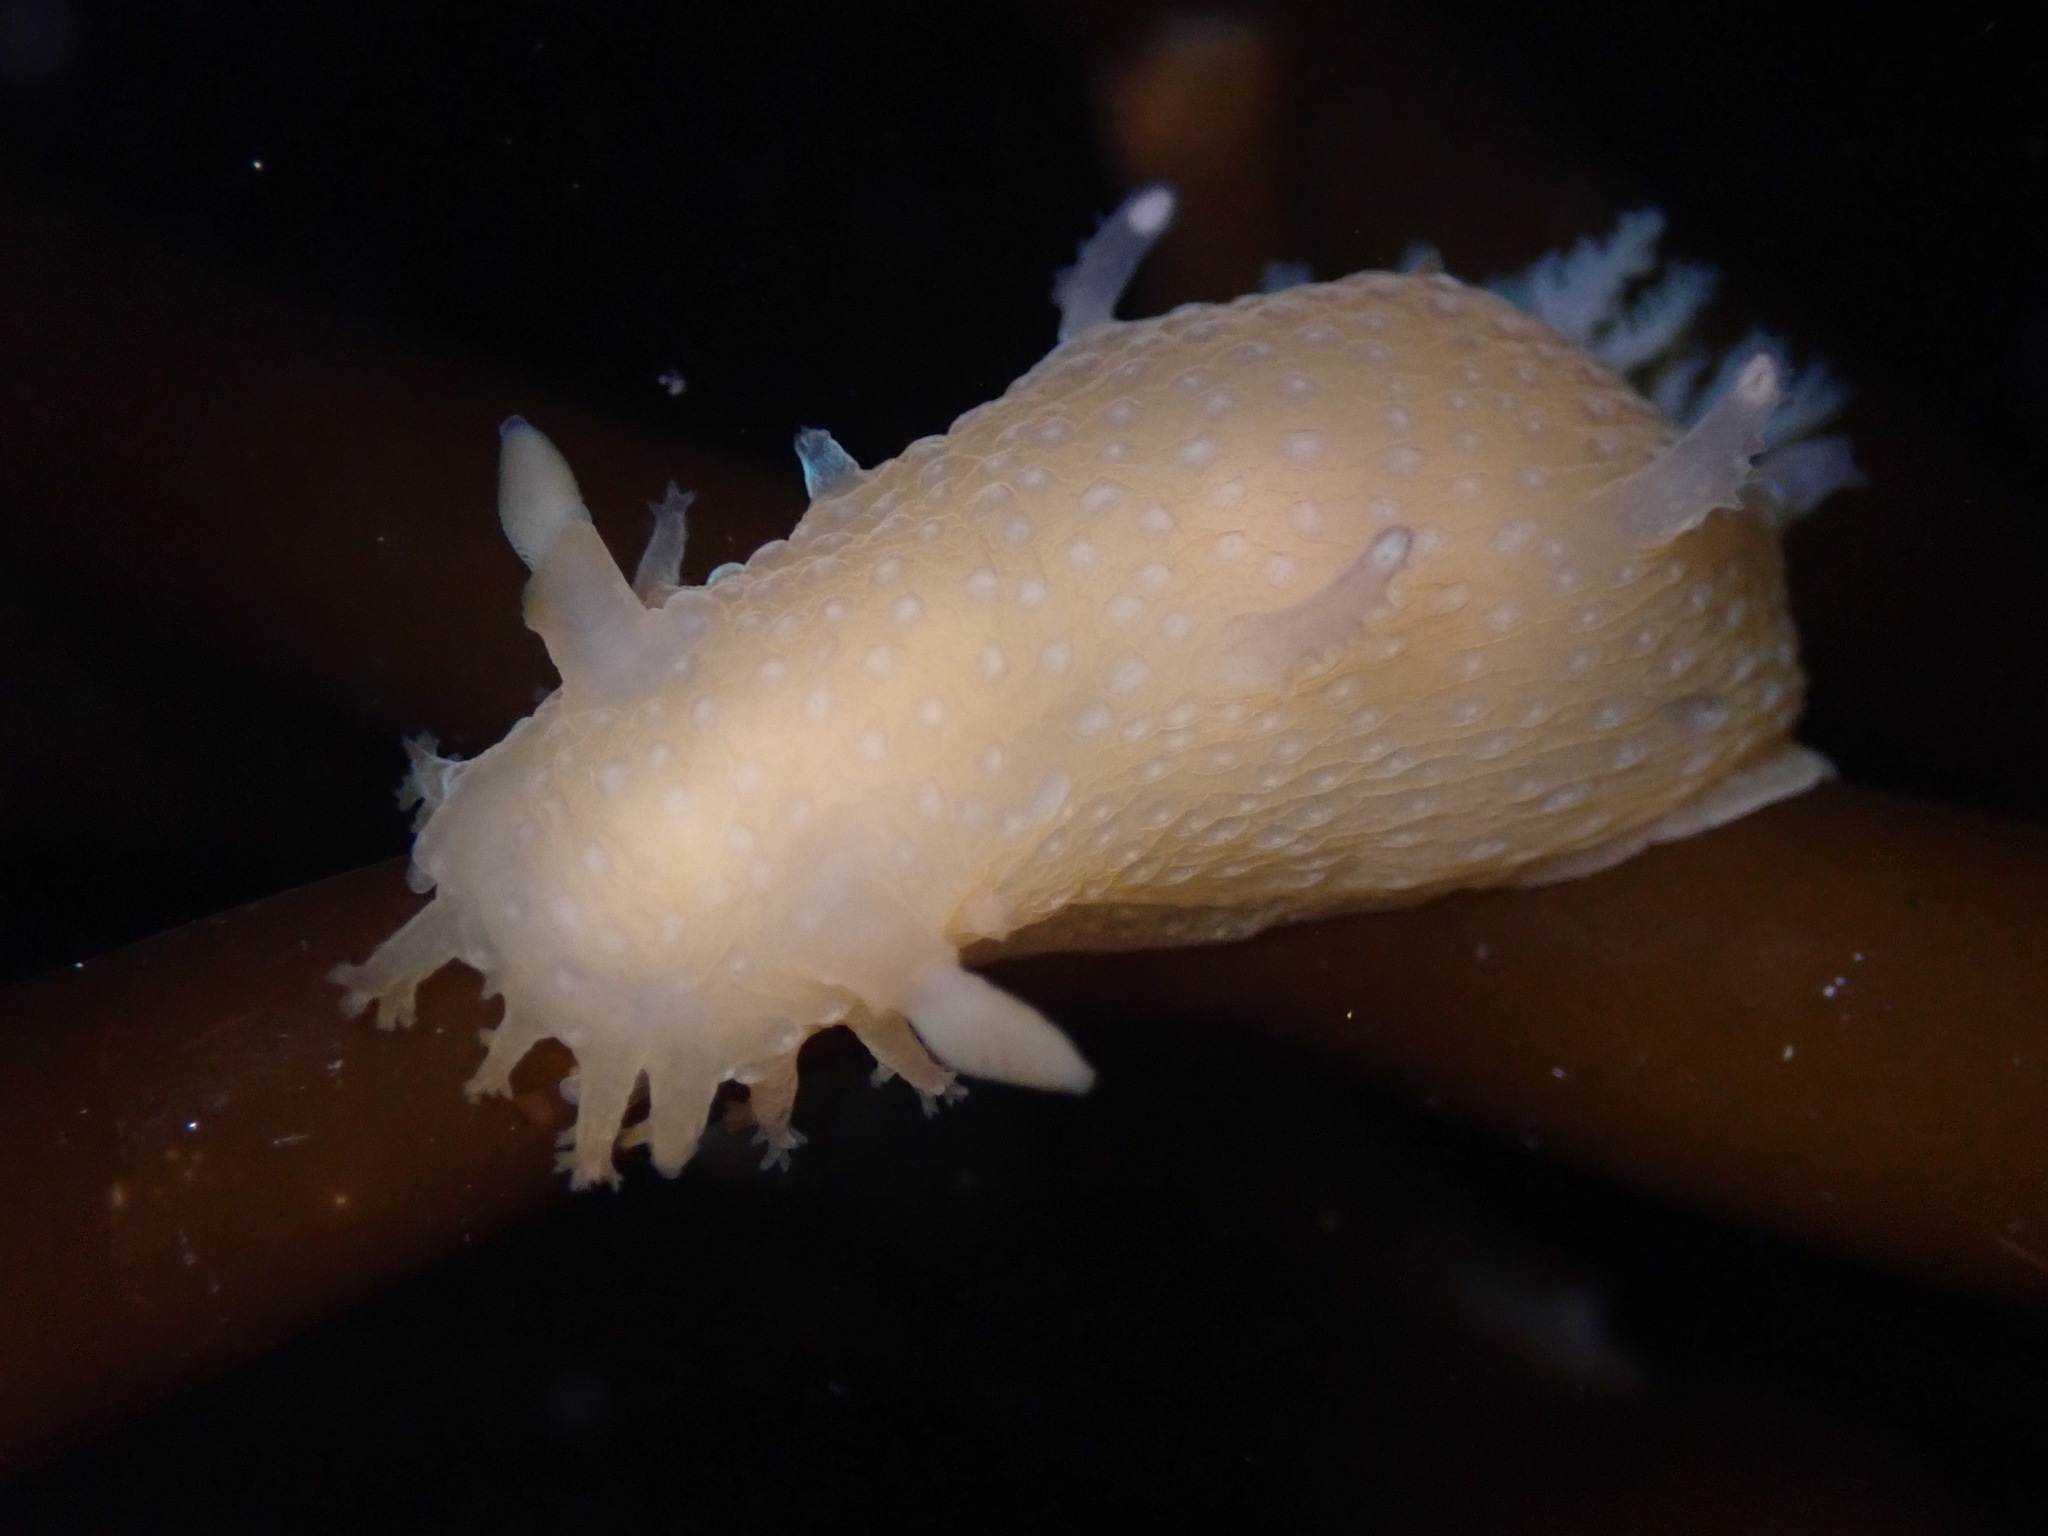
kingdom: Animalia
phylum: Mollusca
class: Gastropoda
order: Nudibranchia
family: Polyceridae
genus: Triopha
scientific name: Triopha maculata
